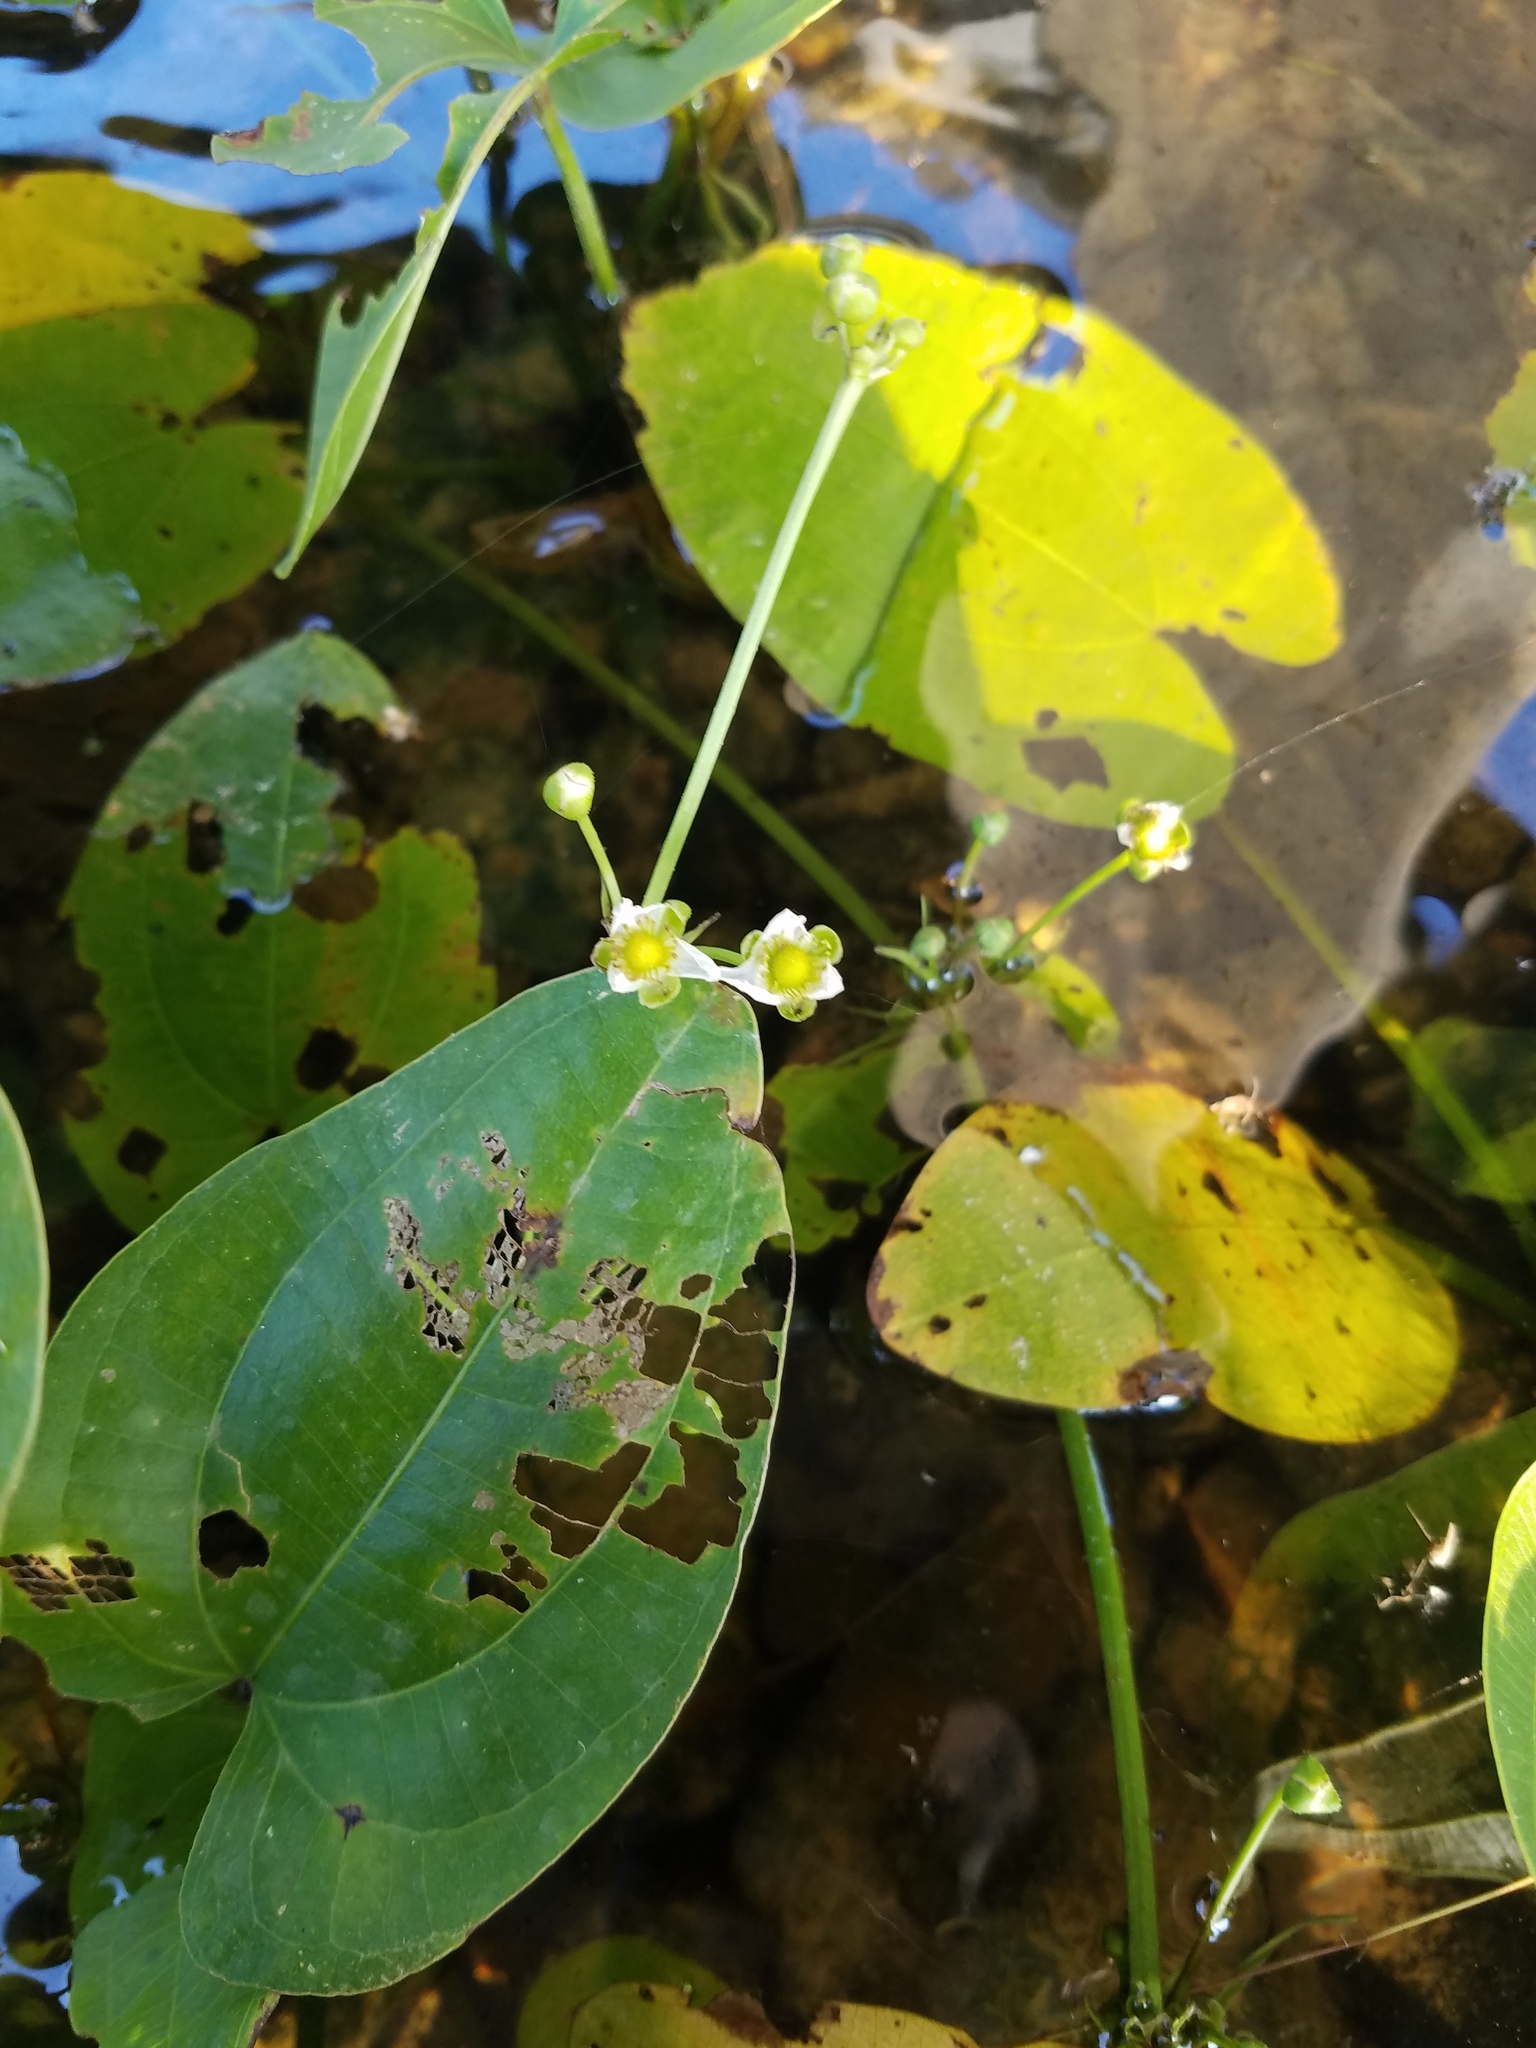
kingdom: Plantae
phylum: Tracheophyta
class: Liliopsida
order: Alismatales
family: Alismataceae
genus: Aquarius
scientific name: Aquarius cordifolius
